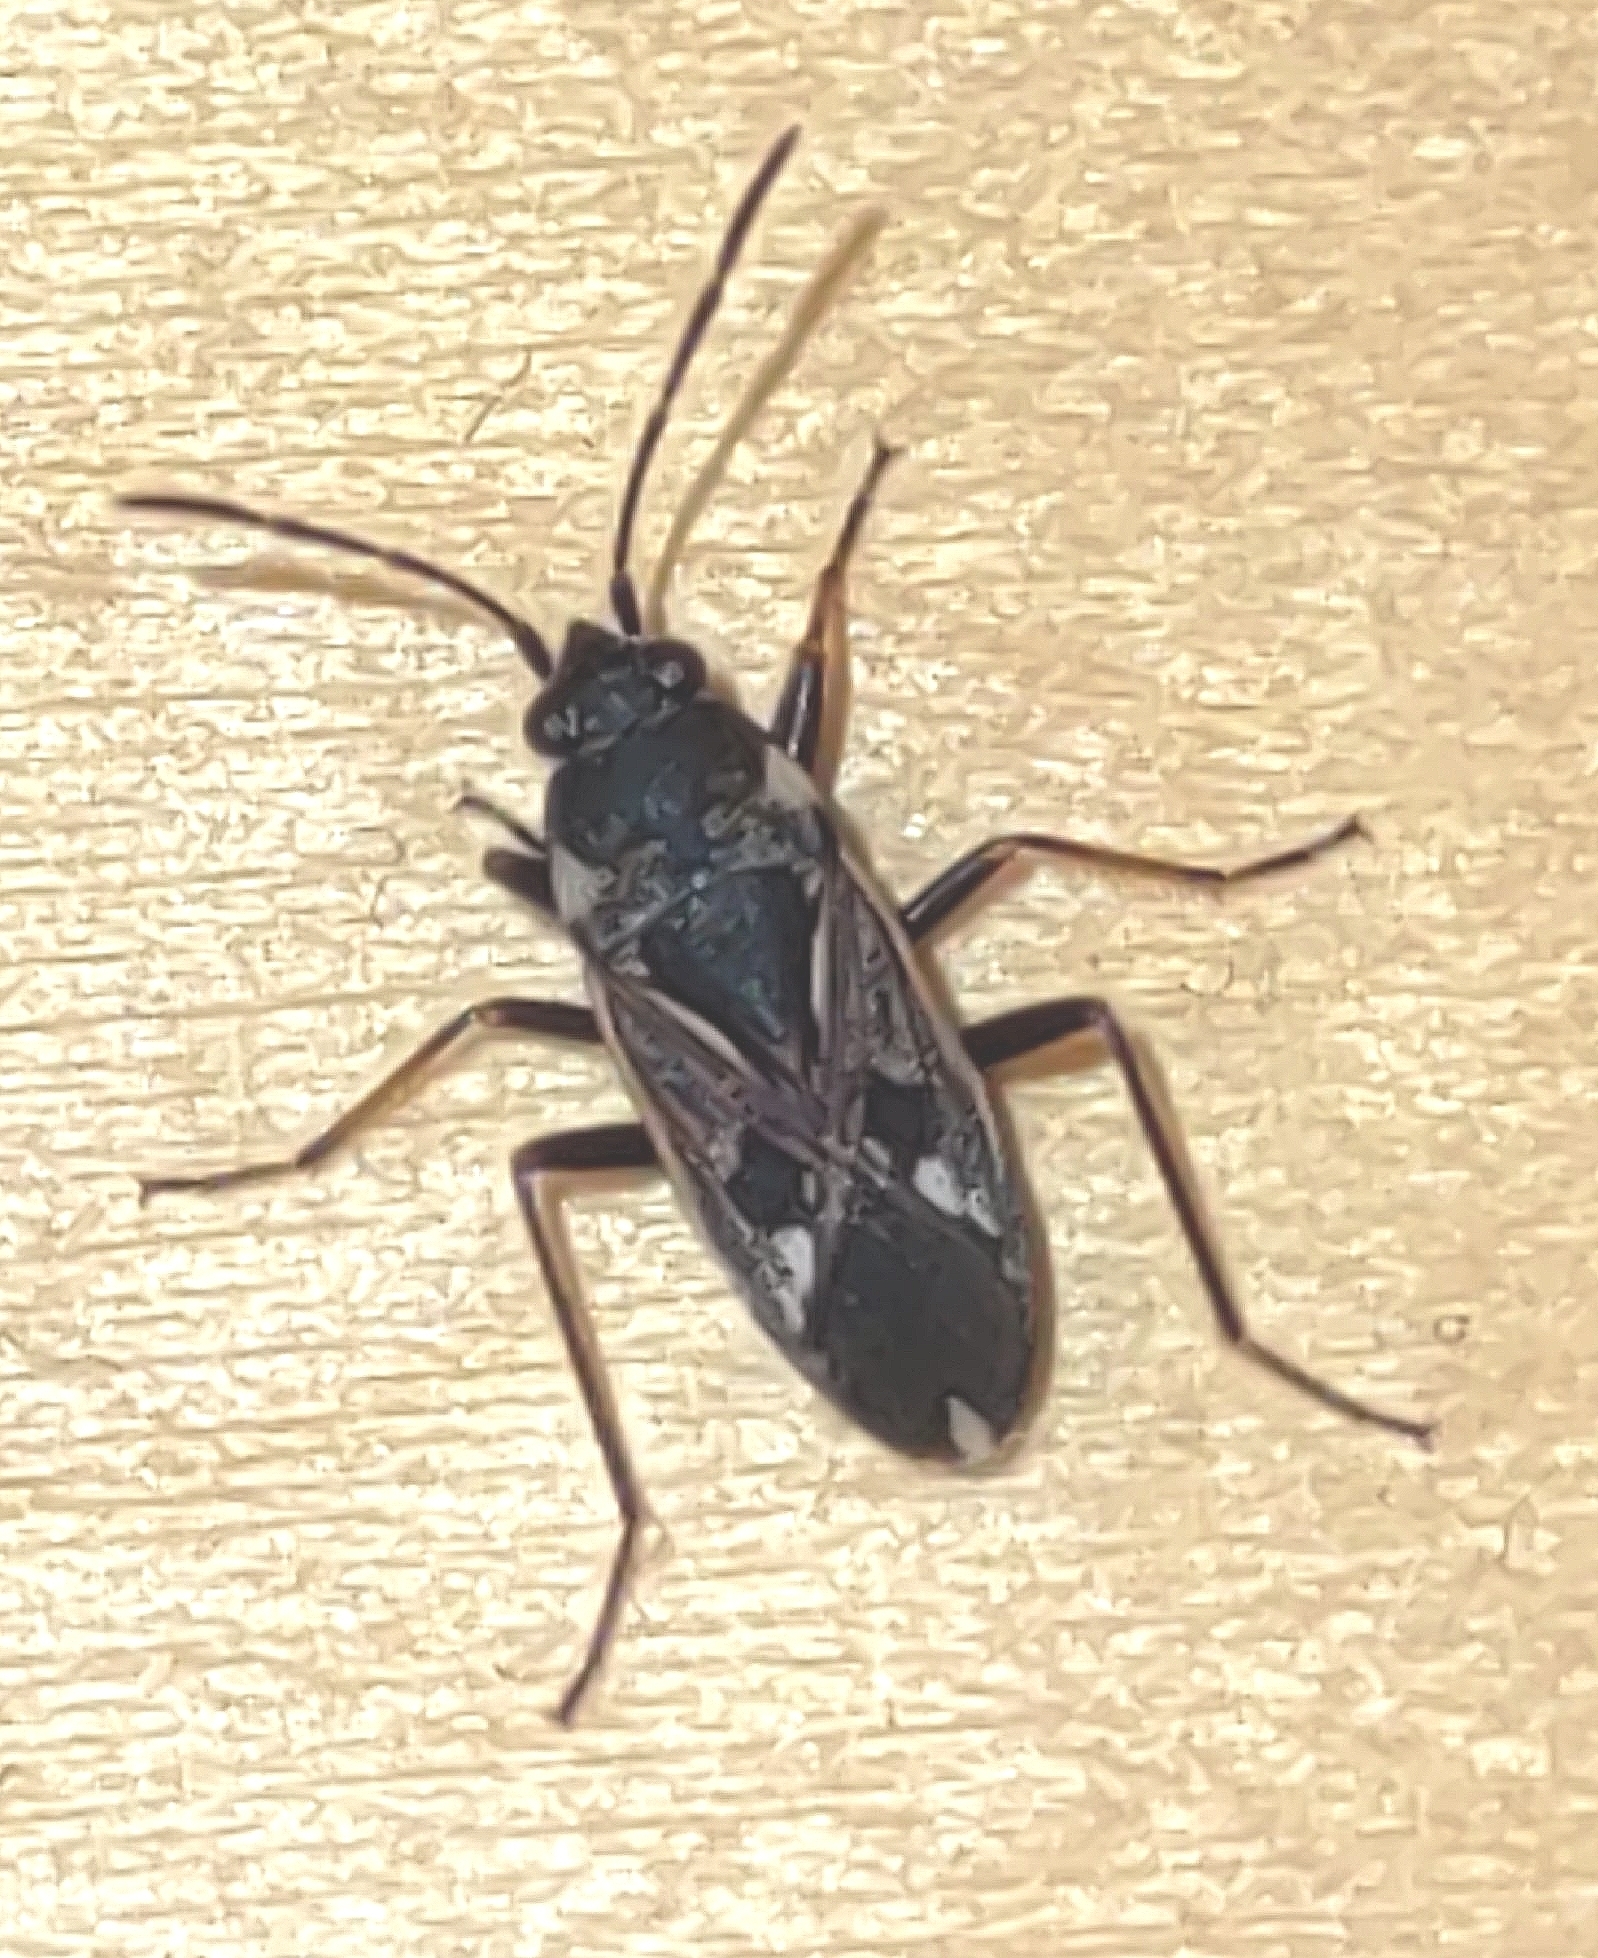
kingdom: Animalia
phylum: Arthropoda
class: Insecta
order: Hemiptera
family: Rhyparochromidae
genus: Rhyparochromus
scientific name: Rhyparochromus vulgaris
